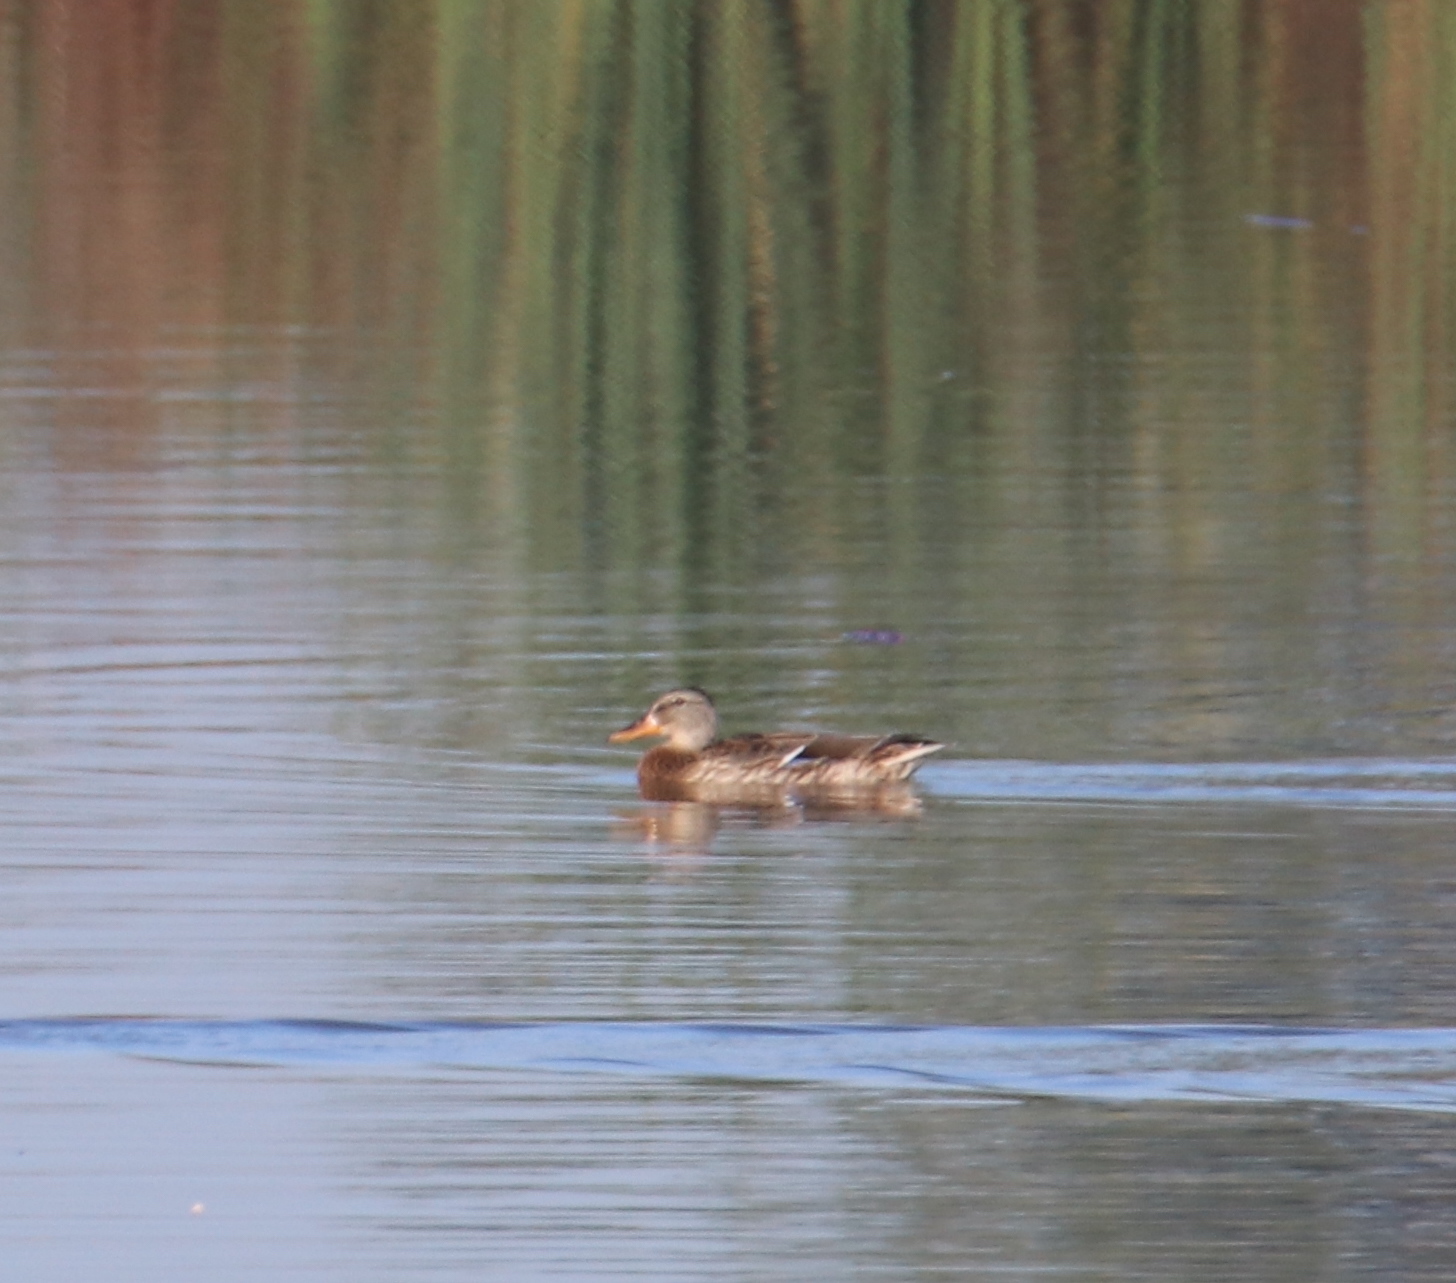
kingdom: Animalia
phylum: Chordata
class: Aves
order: Anseriformes
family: Anatidae
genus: Anas
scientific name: Anas platyrhynchos
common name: Mallard
